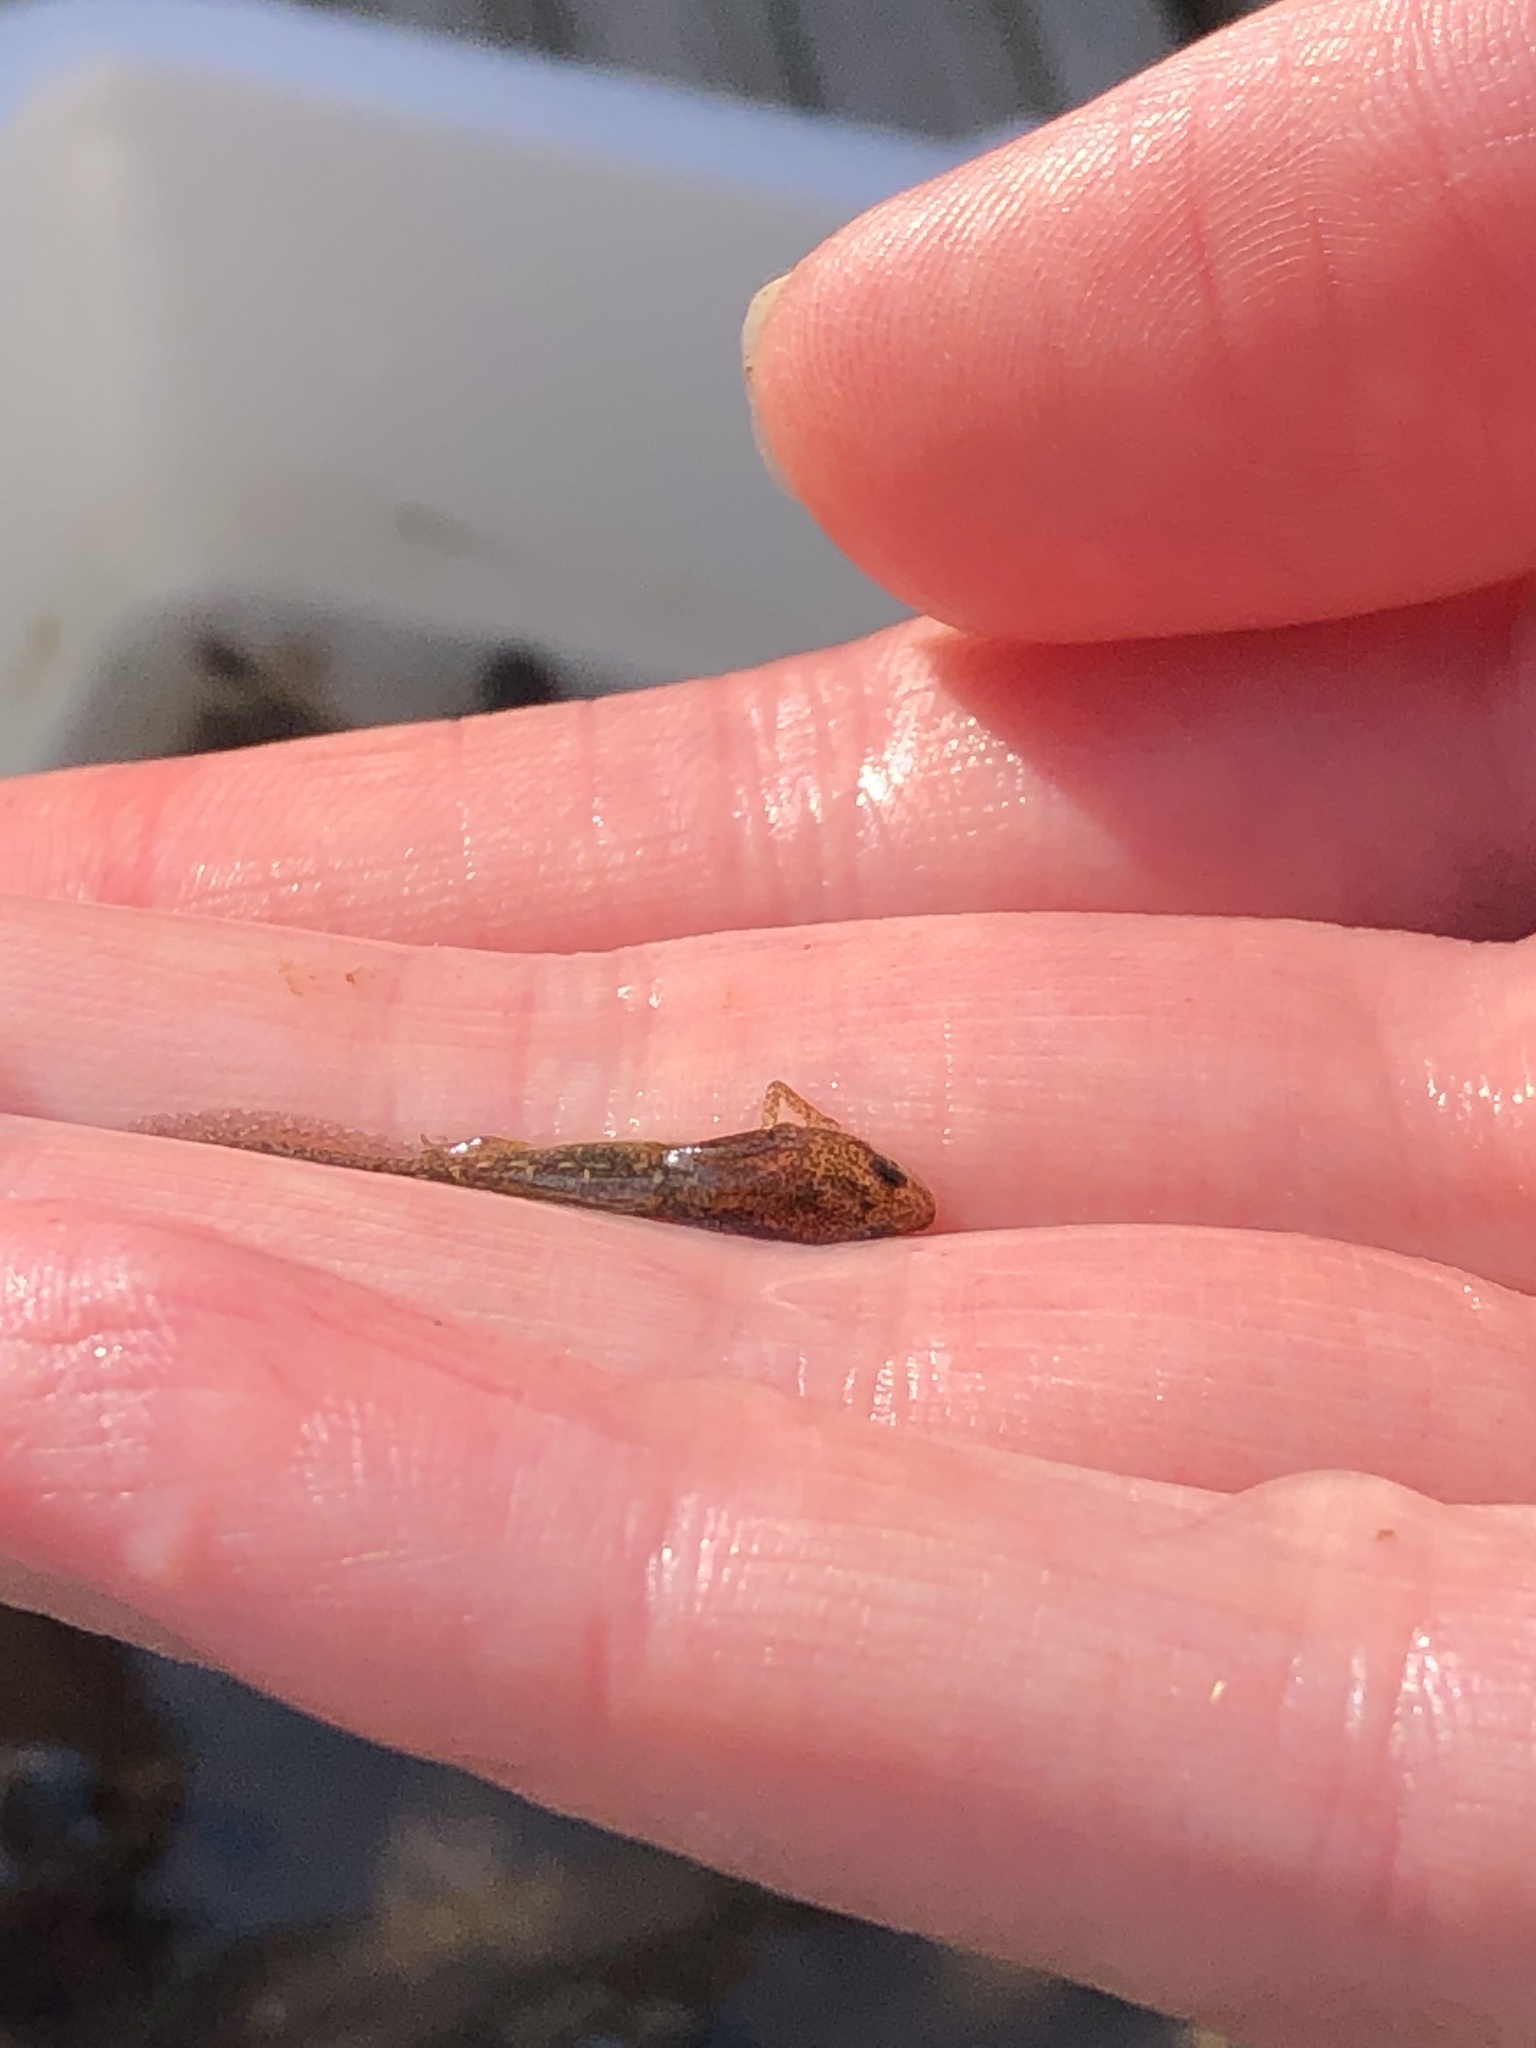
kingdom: Animalia
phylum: Chordata
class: Amphibia
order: Caudata
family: Salamandridae
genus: Lissotriton
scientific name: Lissotriton
